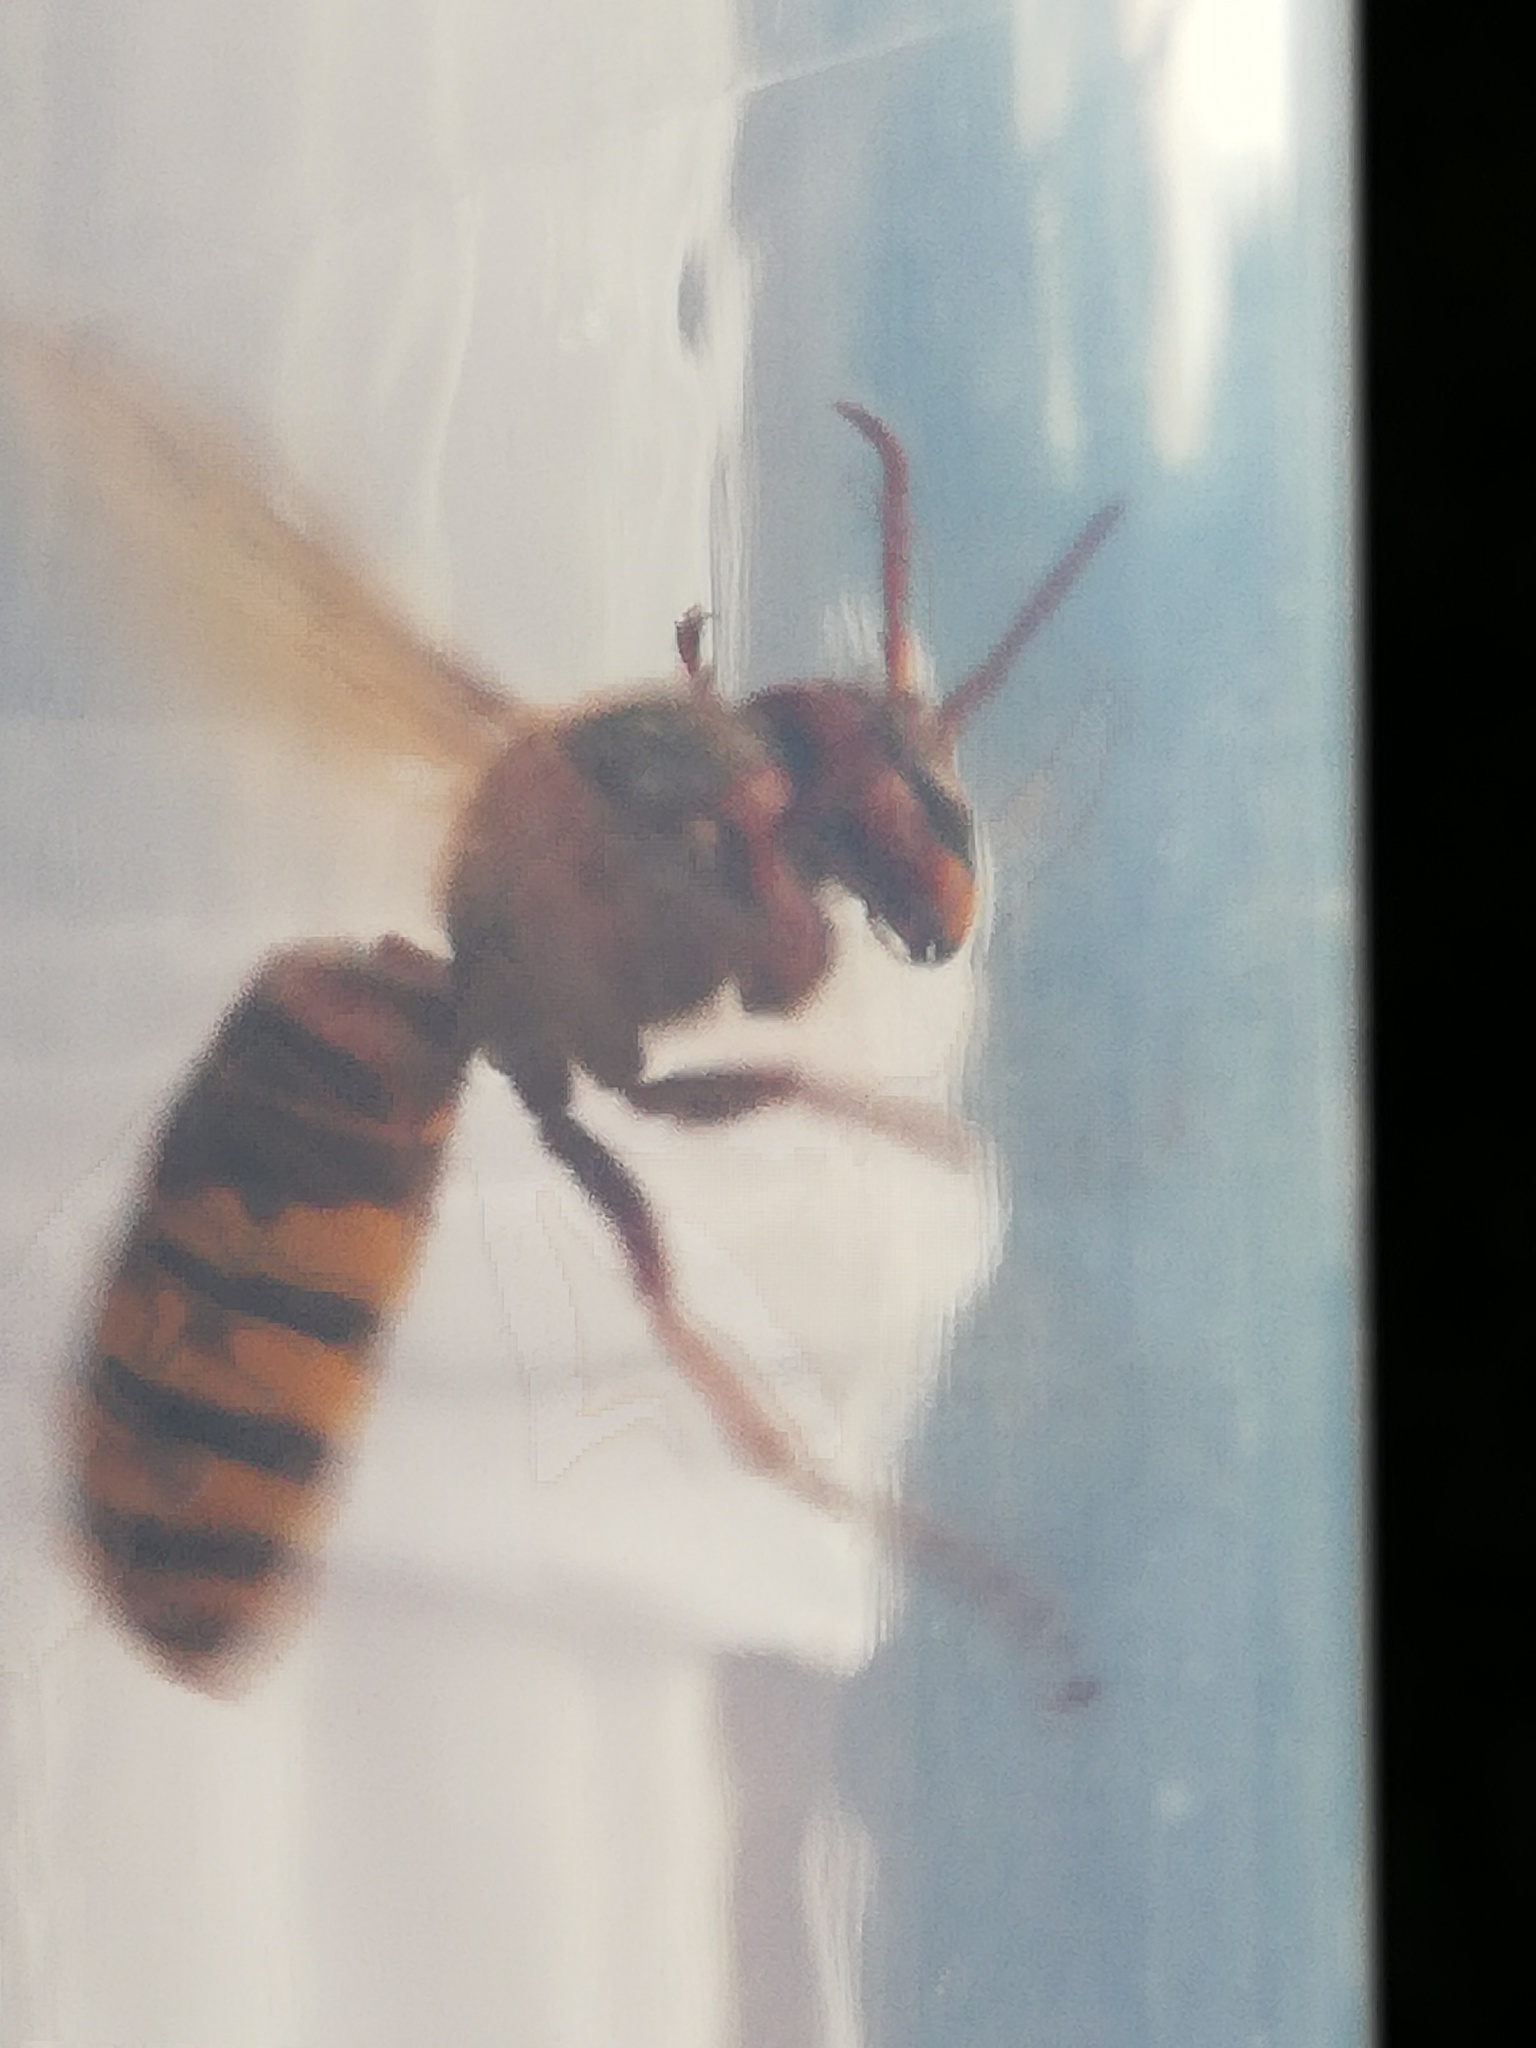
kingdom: Animalia
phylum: Arthropoda
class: Insecta
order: Hymenoptera
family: Vespidae
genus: Vespa
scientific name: Vespa crabro
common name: Hornet
